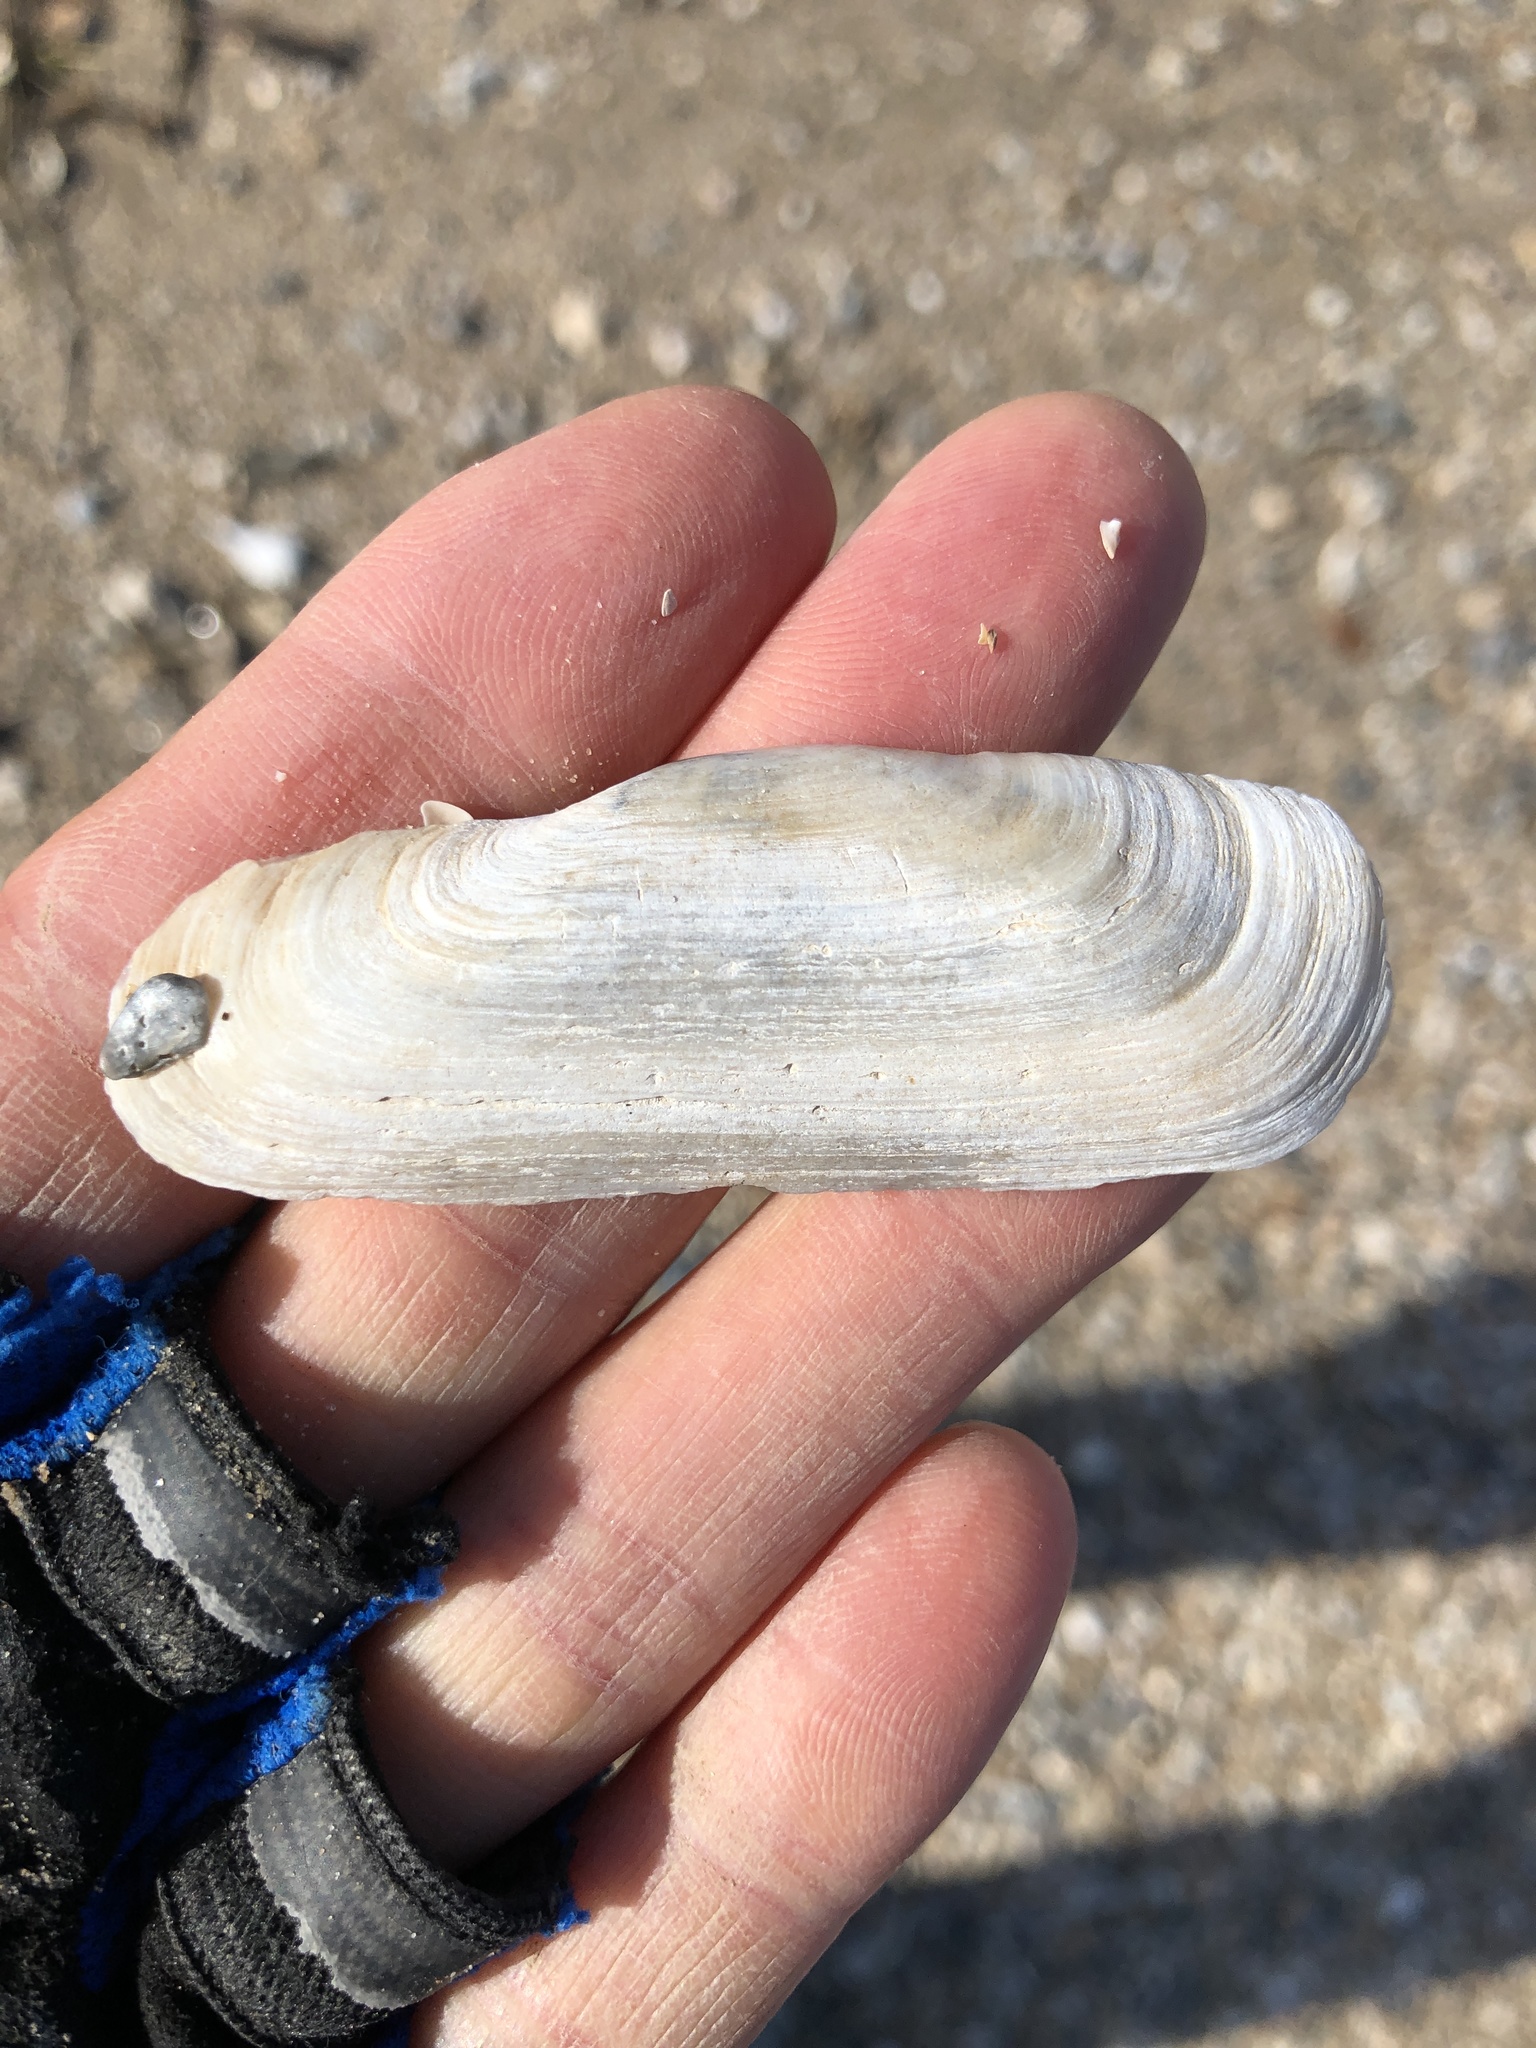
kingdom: Animalia
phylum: Mollusca
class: Bivalvia
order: Cardiida
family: Solecurtidae
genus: Tagelus
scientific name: Tagelus plebeius
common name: Stout tagelus
